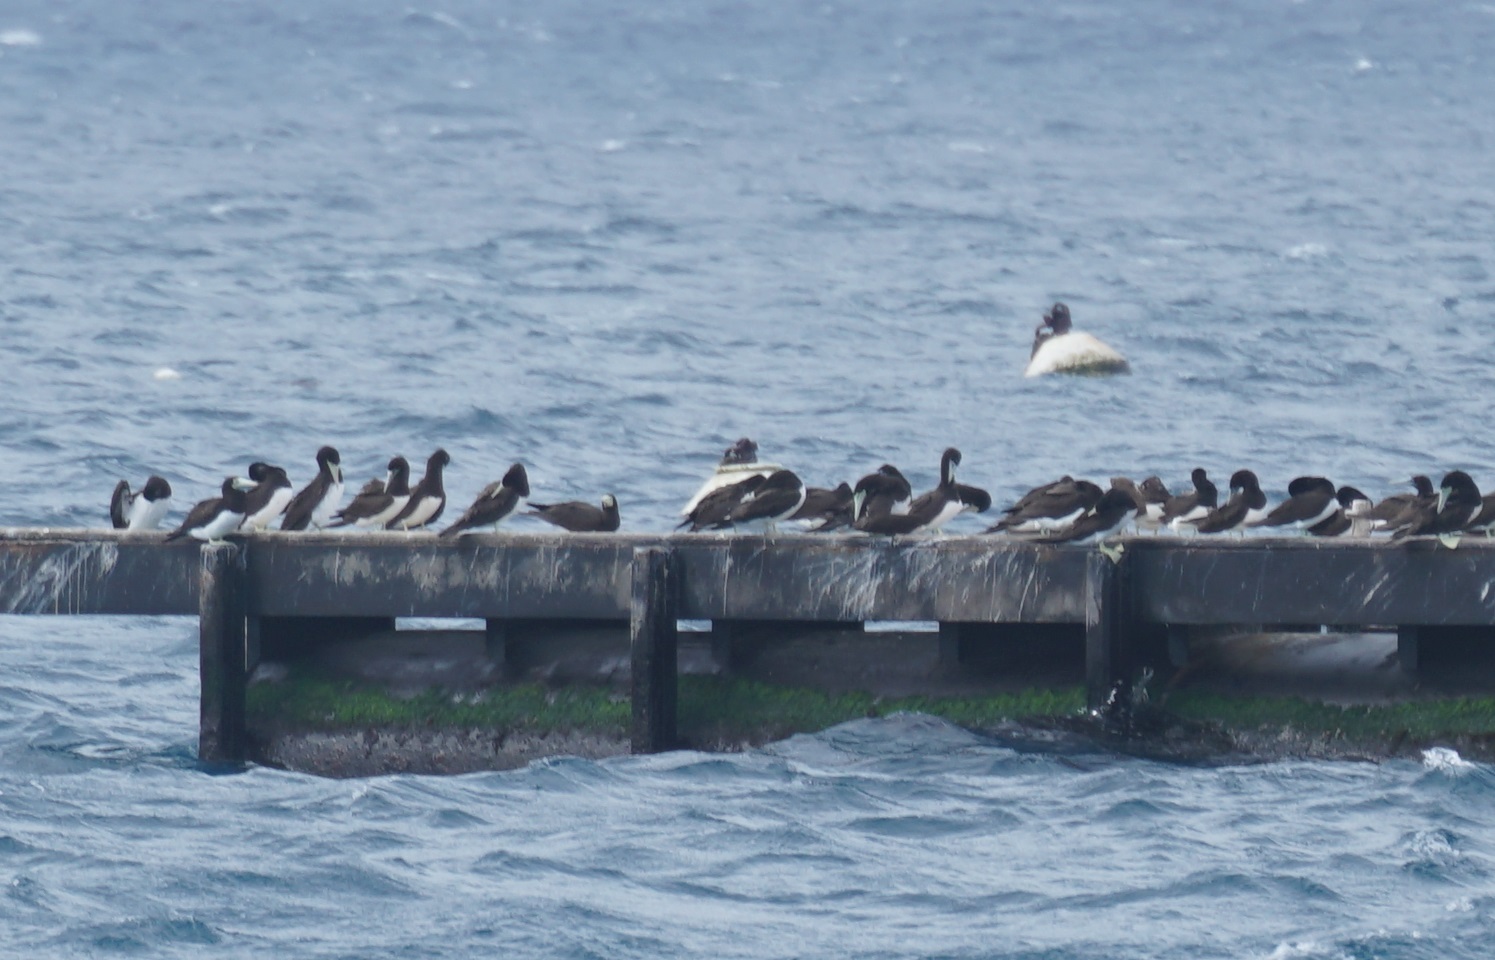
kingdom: Animalia
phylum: Chordata
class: Aves
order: Suliformes
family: Sulidae
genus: Sula
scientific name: Sula leucogaster
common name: Brown booby
